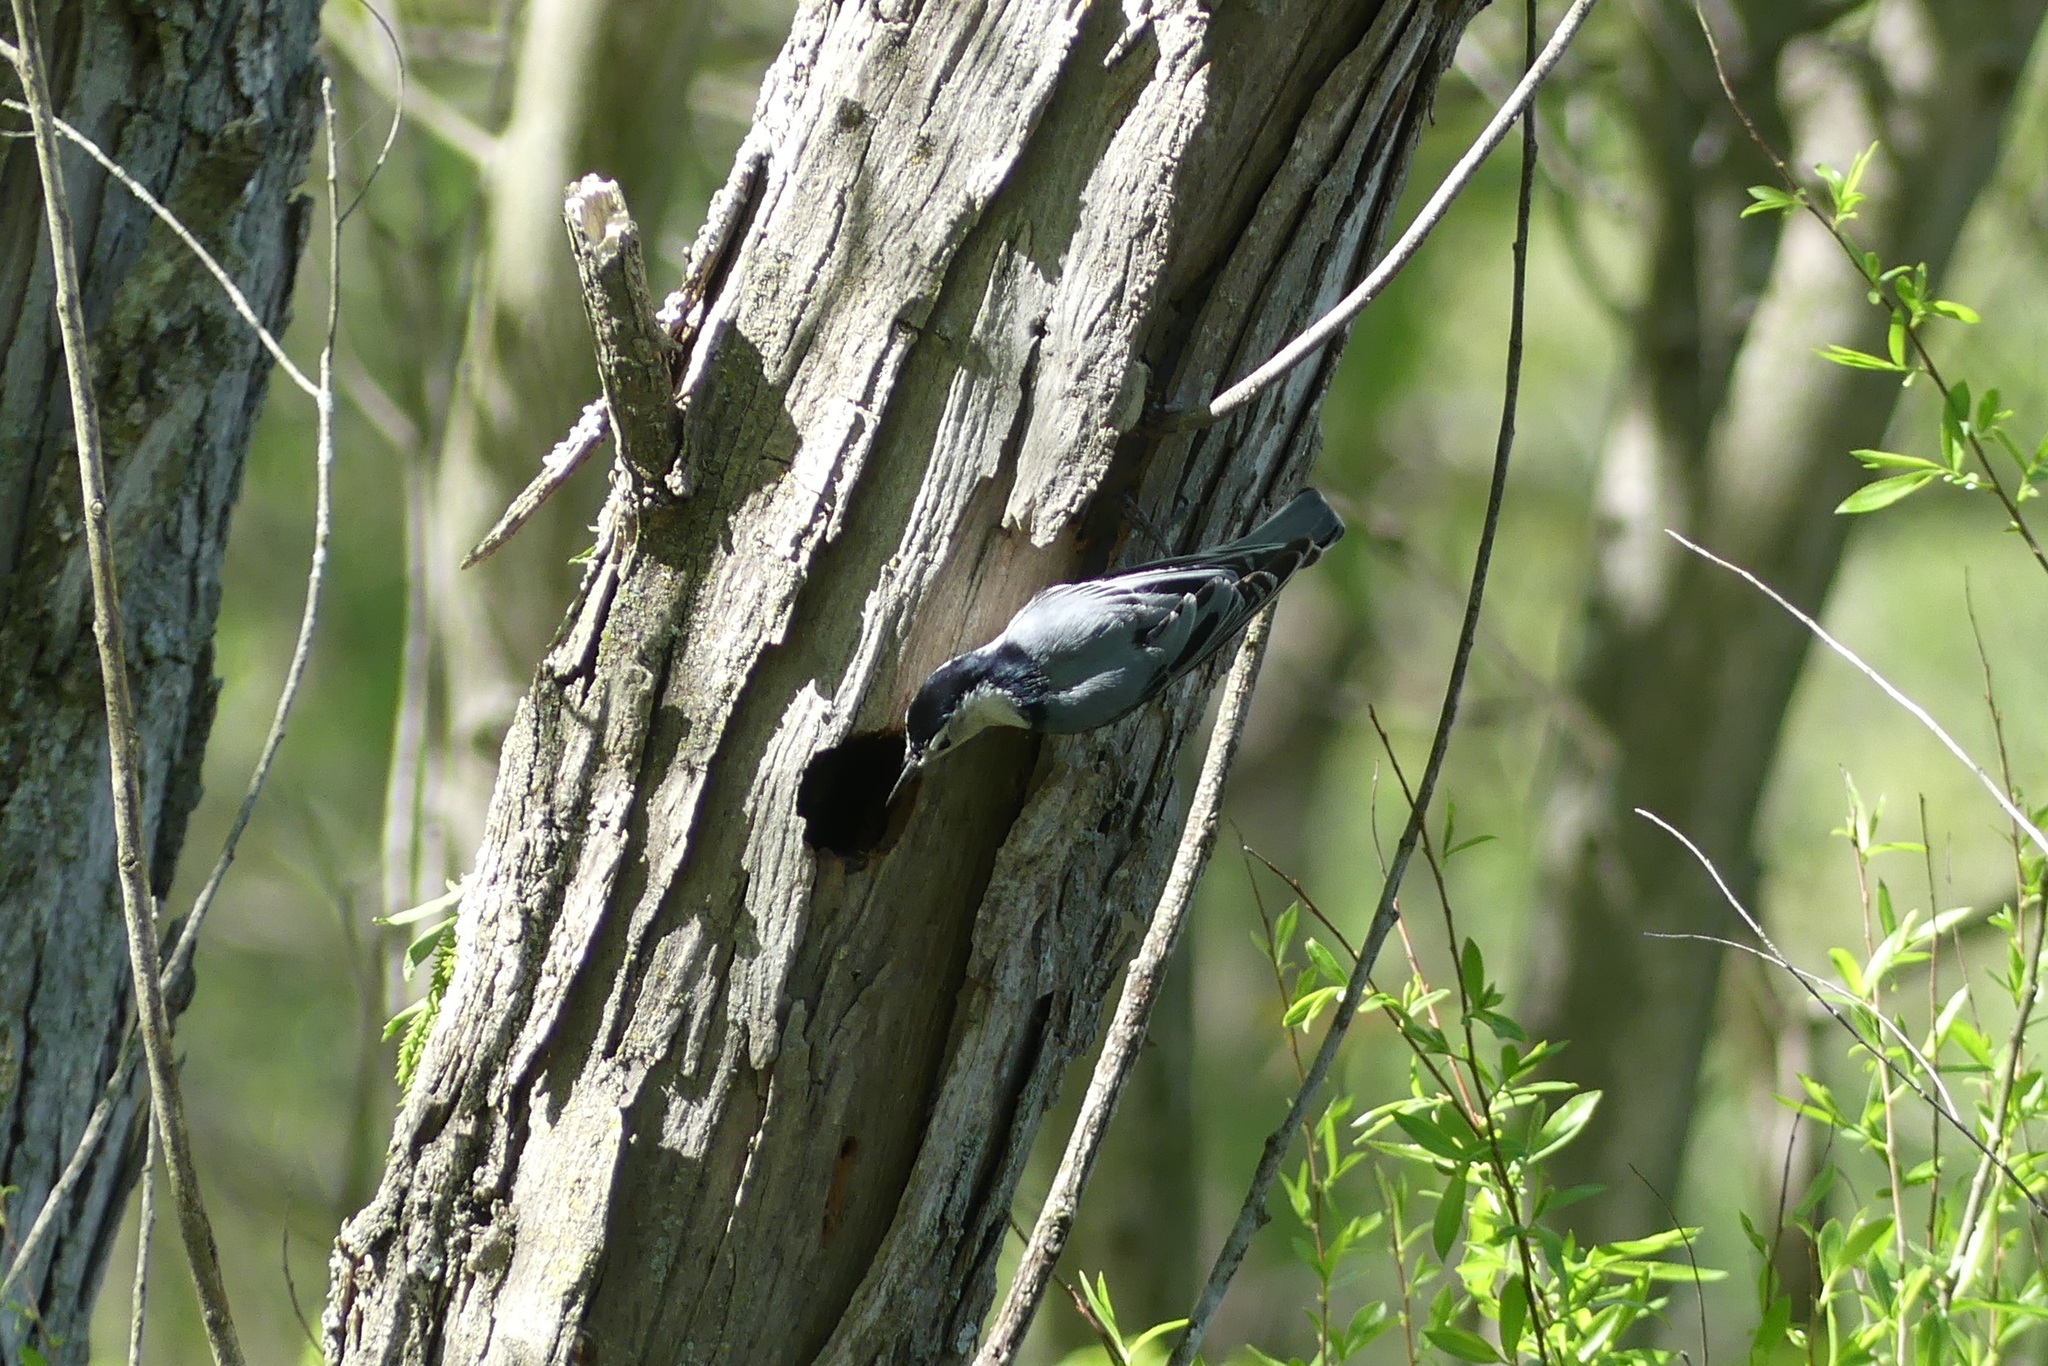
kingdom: Animalia
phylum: Chordata
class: Aves
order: Passeriformes
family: Sittidae
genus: Sitta
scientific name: Sitta carolinensis
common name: White-breasted nuthatch
